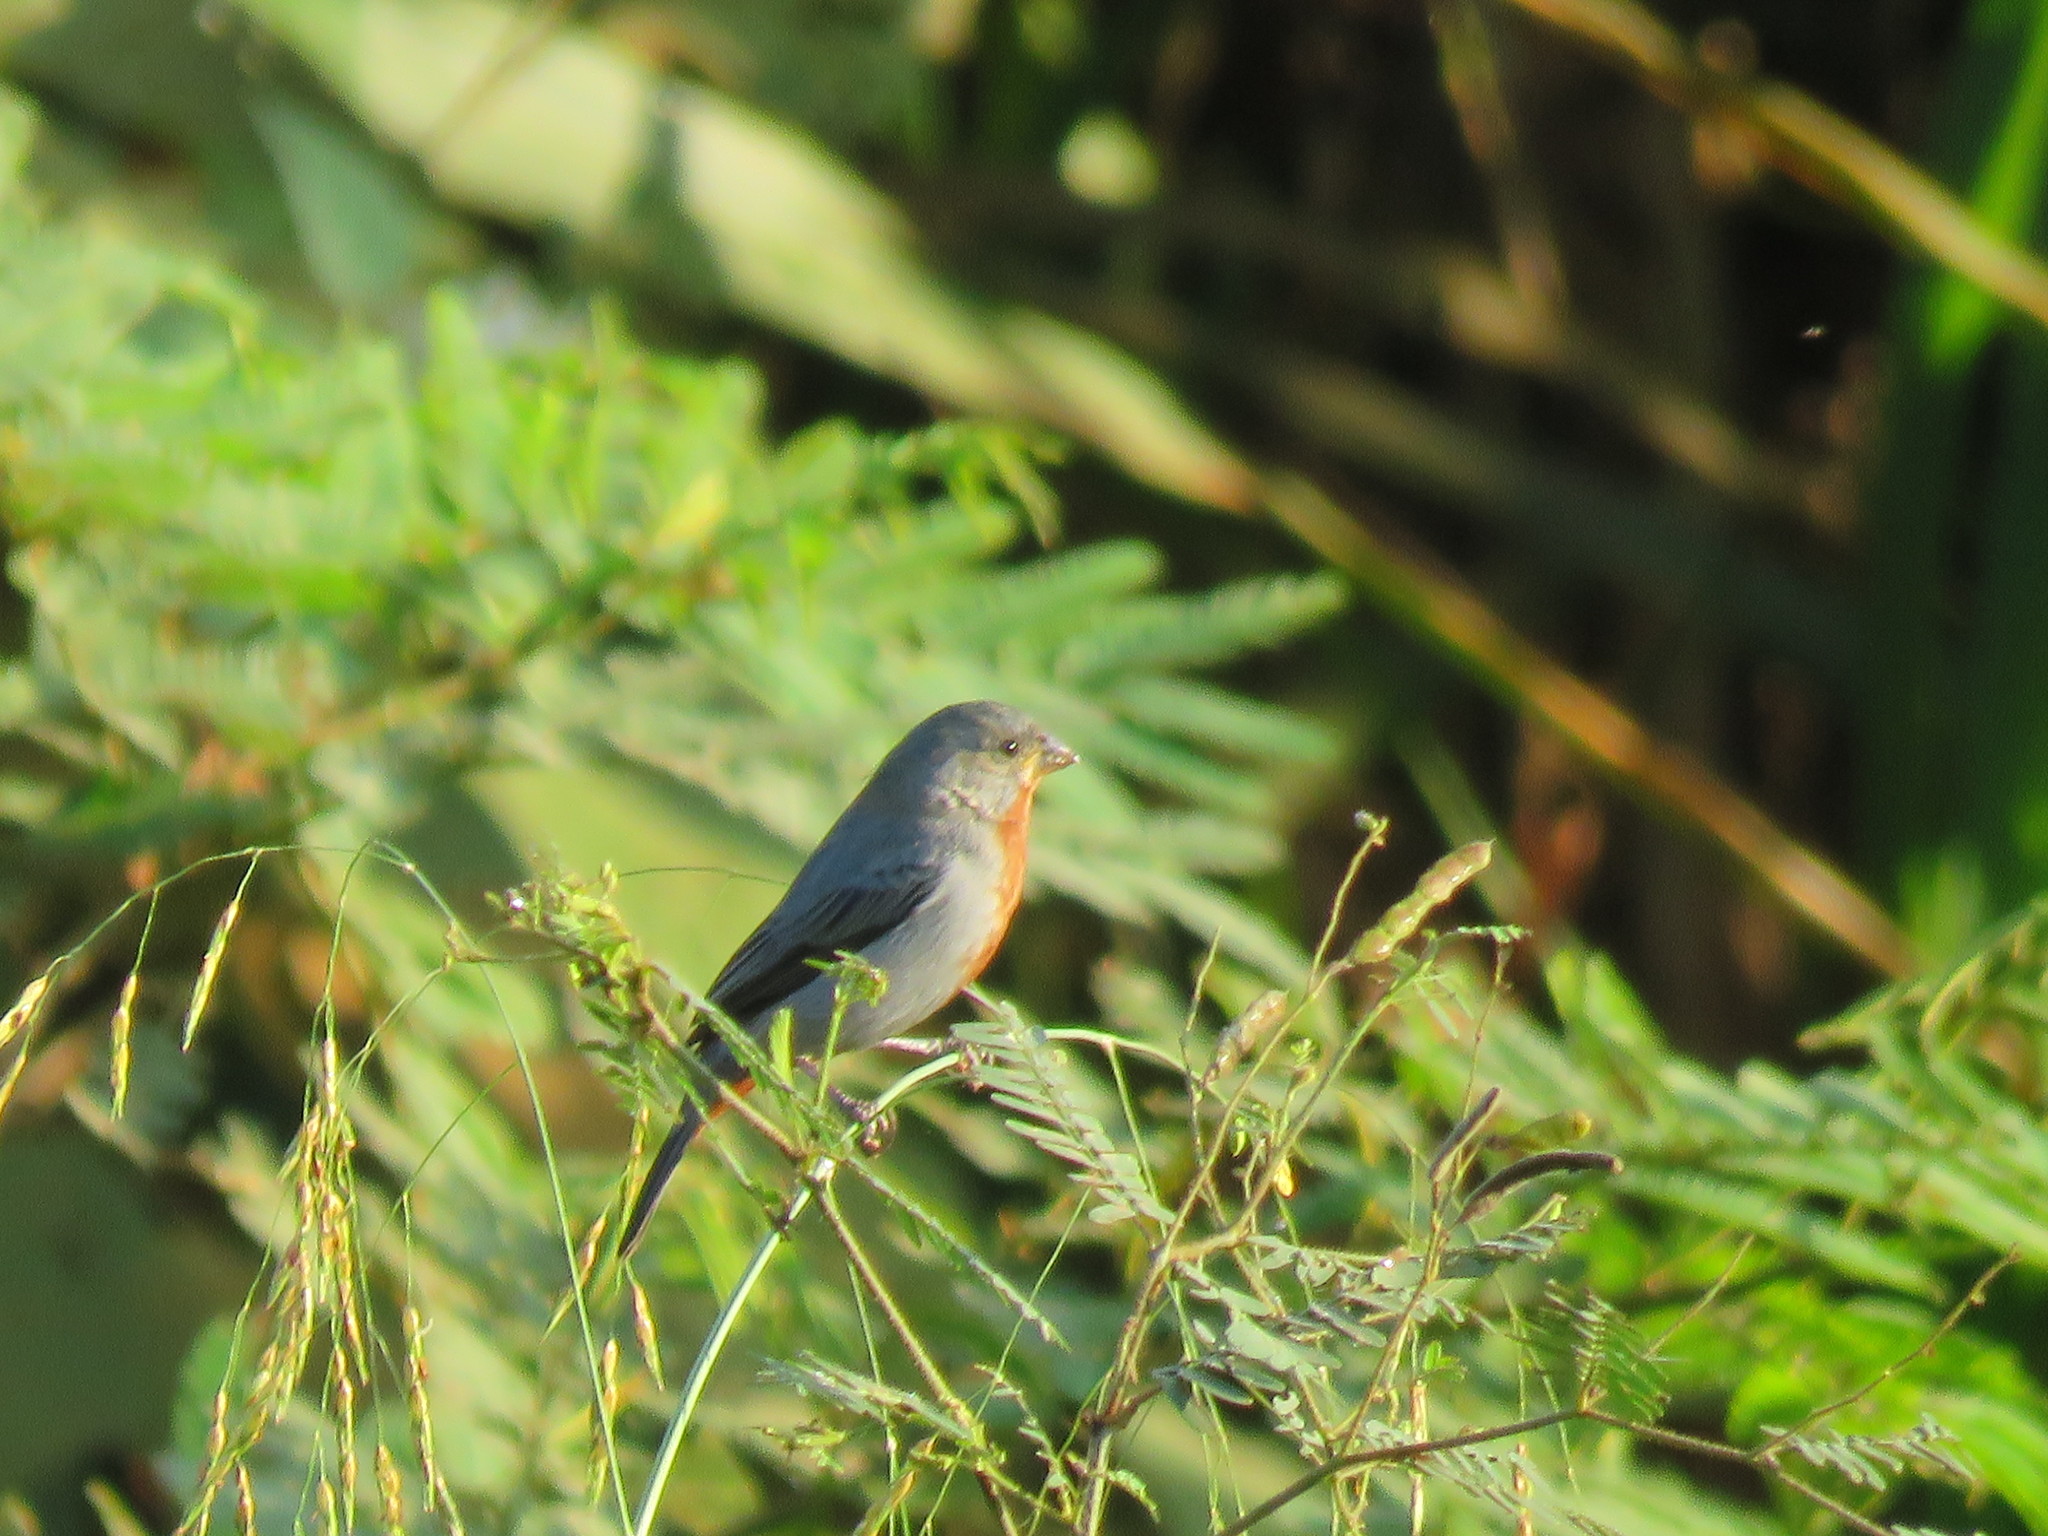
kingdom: Animalia
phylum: Chordata
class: Aves
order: Passeriformes
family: Thraupidae
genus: Sporophila
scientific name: Sporophila castaneiventris
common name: Chestnut-bellied seedeater
